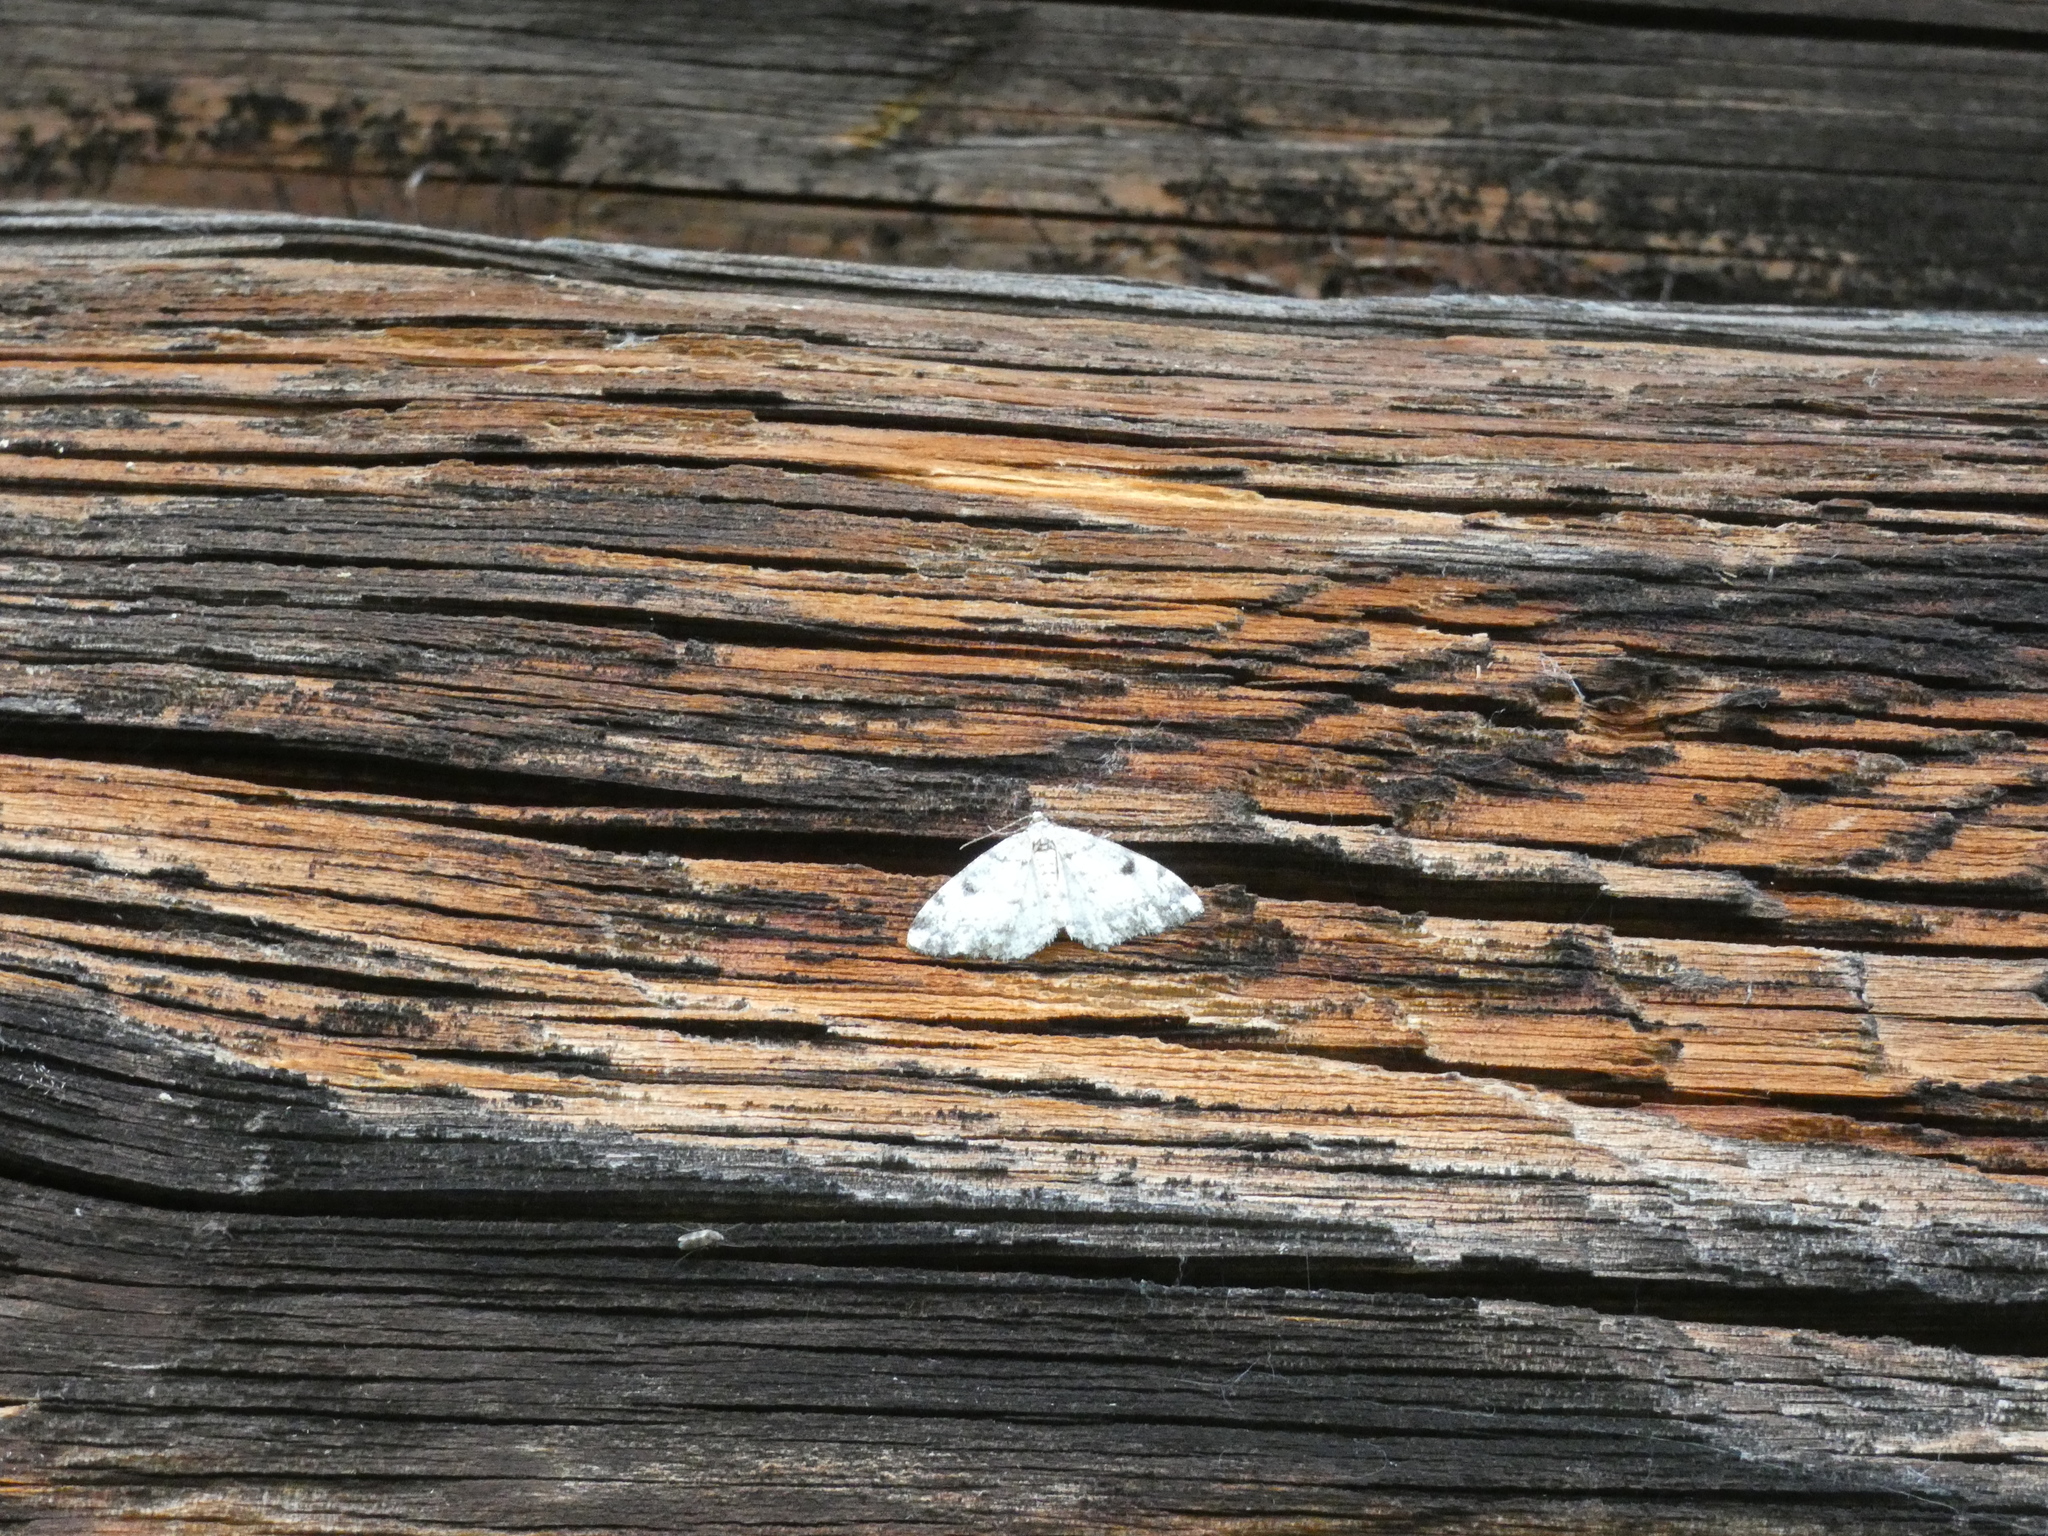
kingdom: Animalia
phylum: Arthropoda
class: Insecta
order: Lepidoptera
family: Geometridae
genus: Alcis
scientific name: Alcis jubata
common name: Dotted carpet
